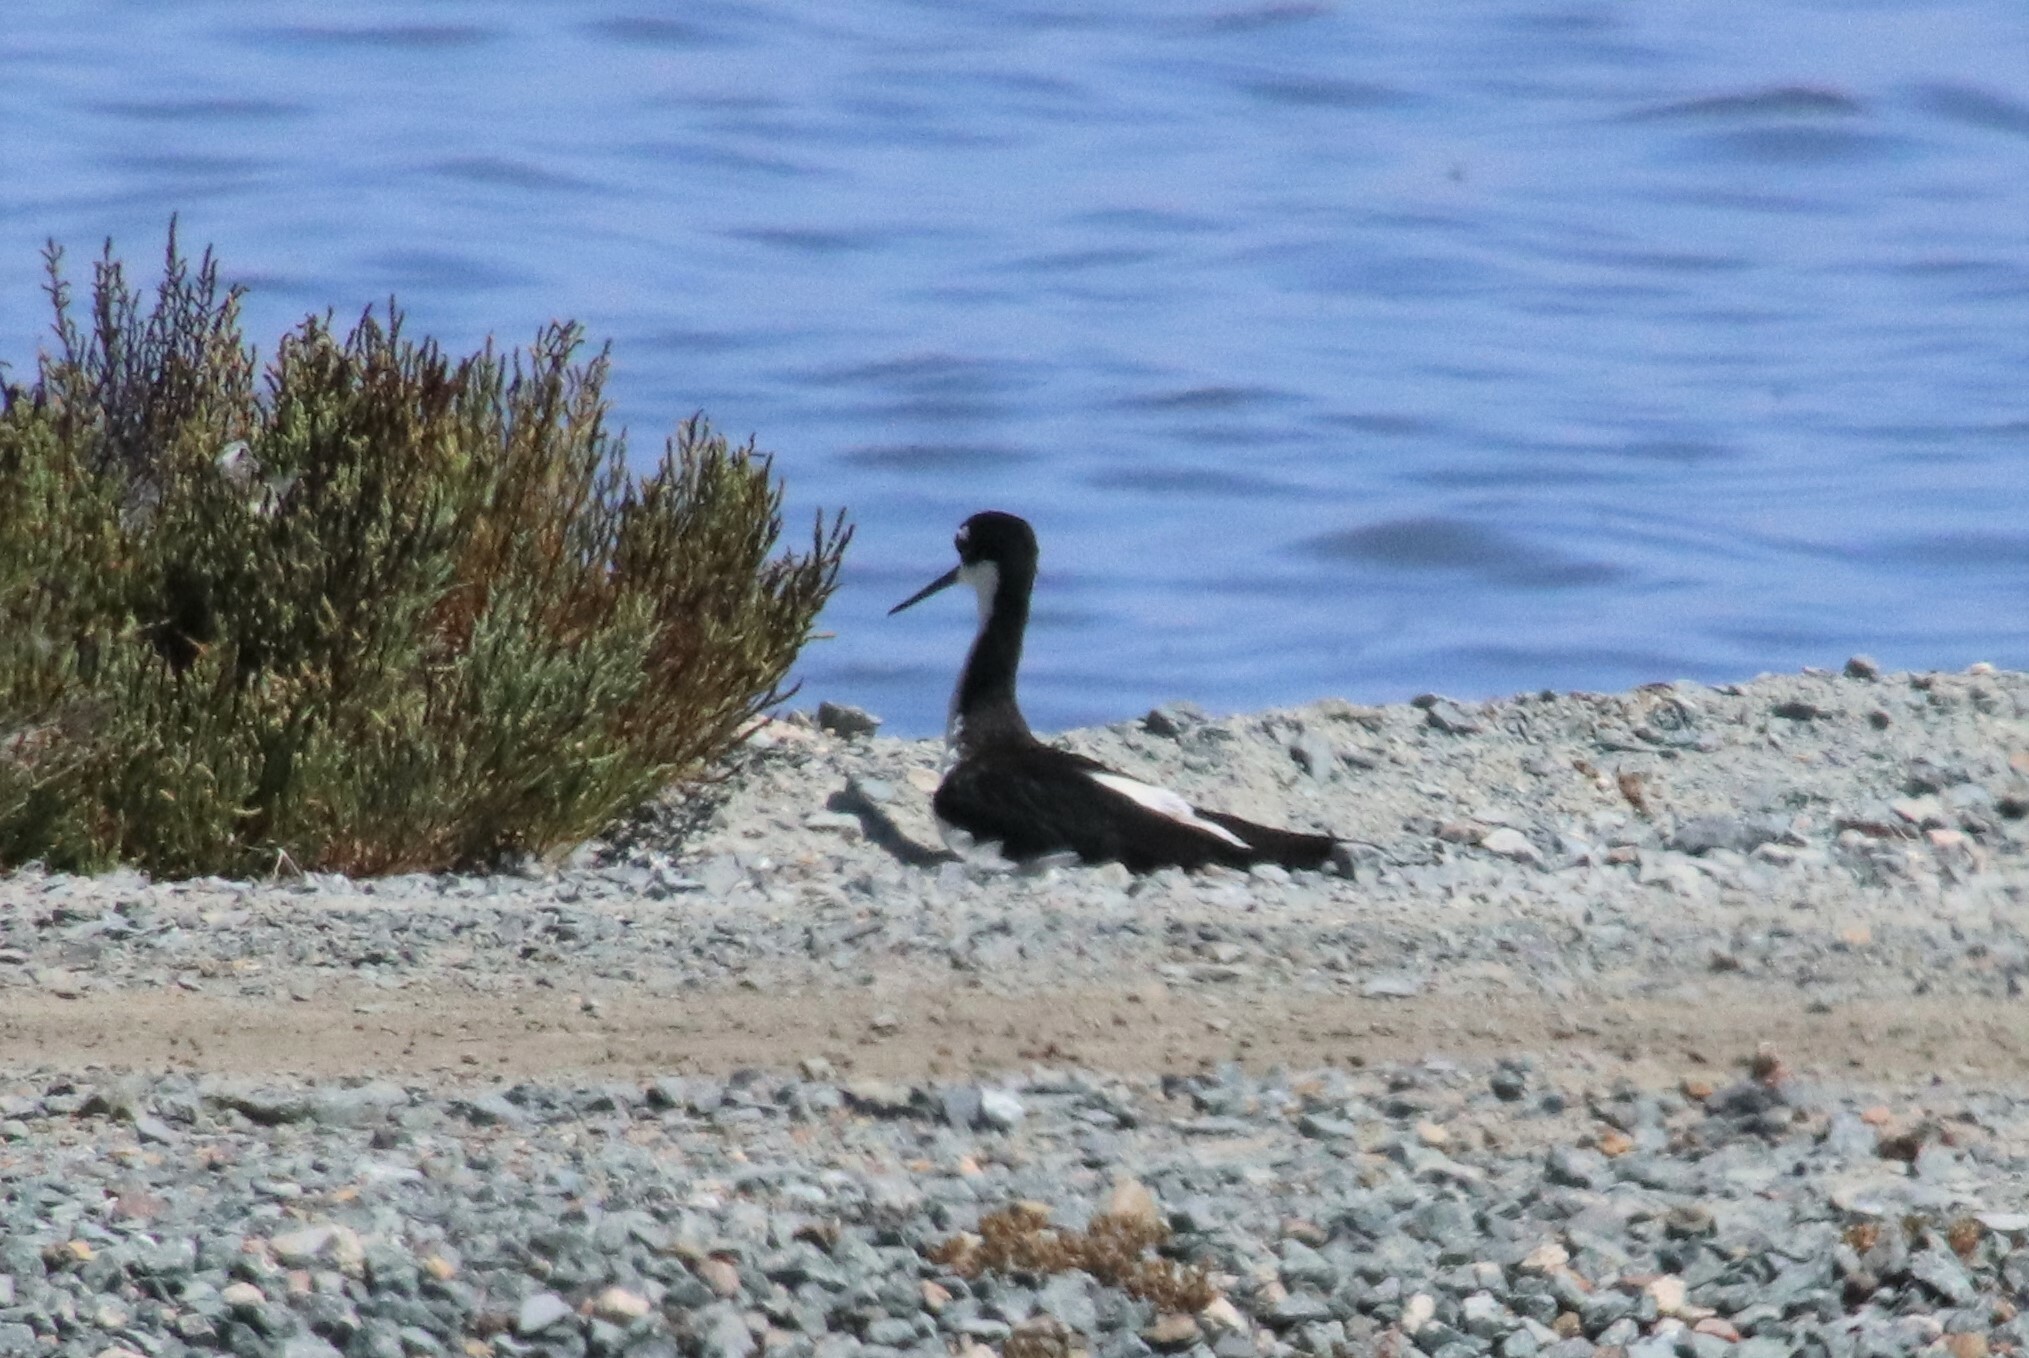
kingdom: Animalia
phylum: Chordata
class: Aves
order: Charadriiformes
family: Recurvirostridae
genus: Himantopus
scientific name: Himantopus mexicanus
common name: Black-necked stilt
